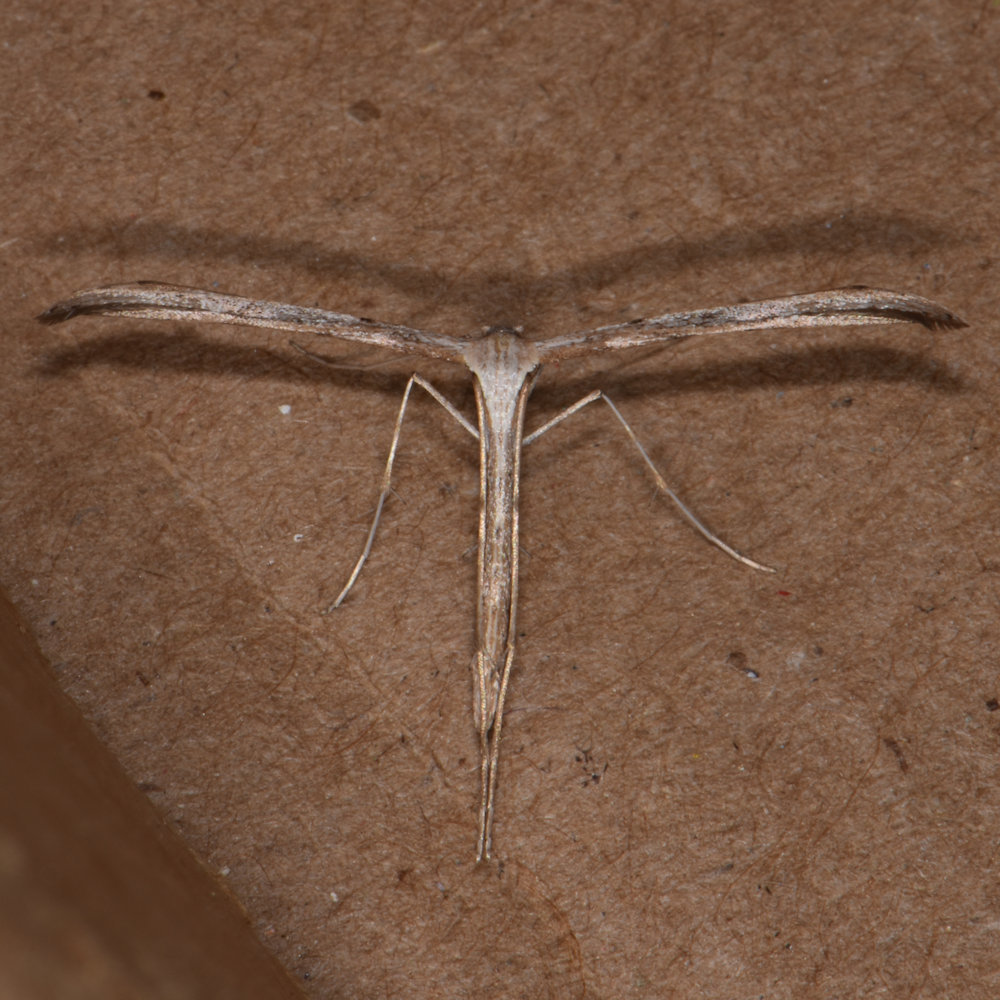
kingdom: Animalia
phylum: Arthropoda
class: Insecta
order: Lepidoptera
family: Pterophoridae
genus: Emmelina
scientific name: Emmelina monodactyla
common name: Common plume
